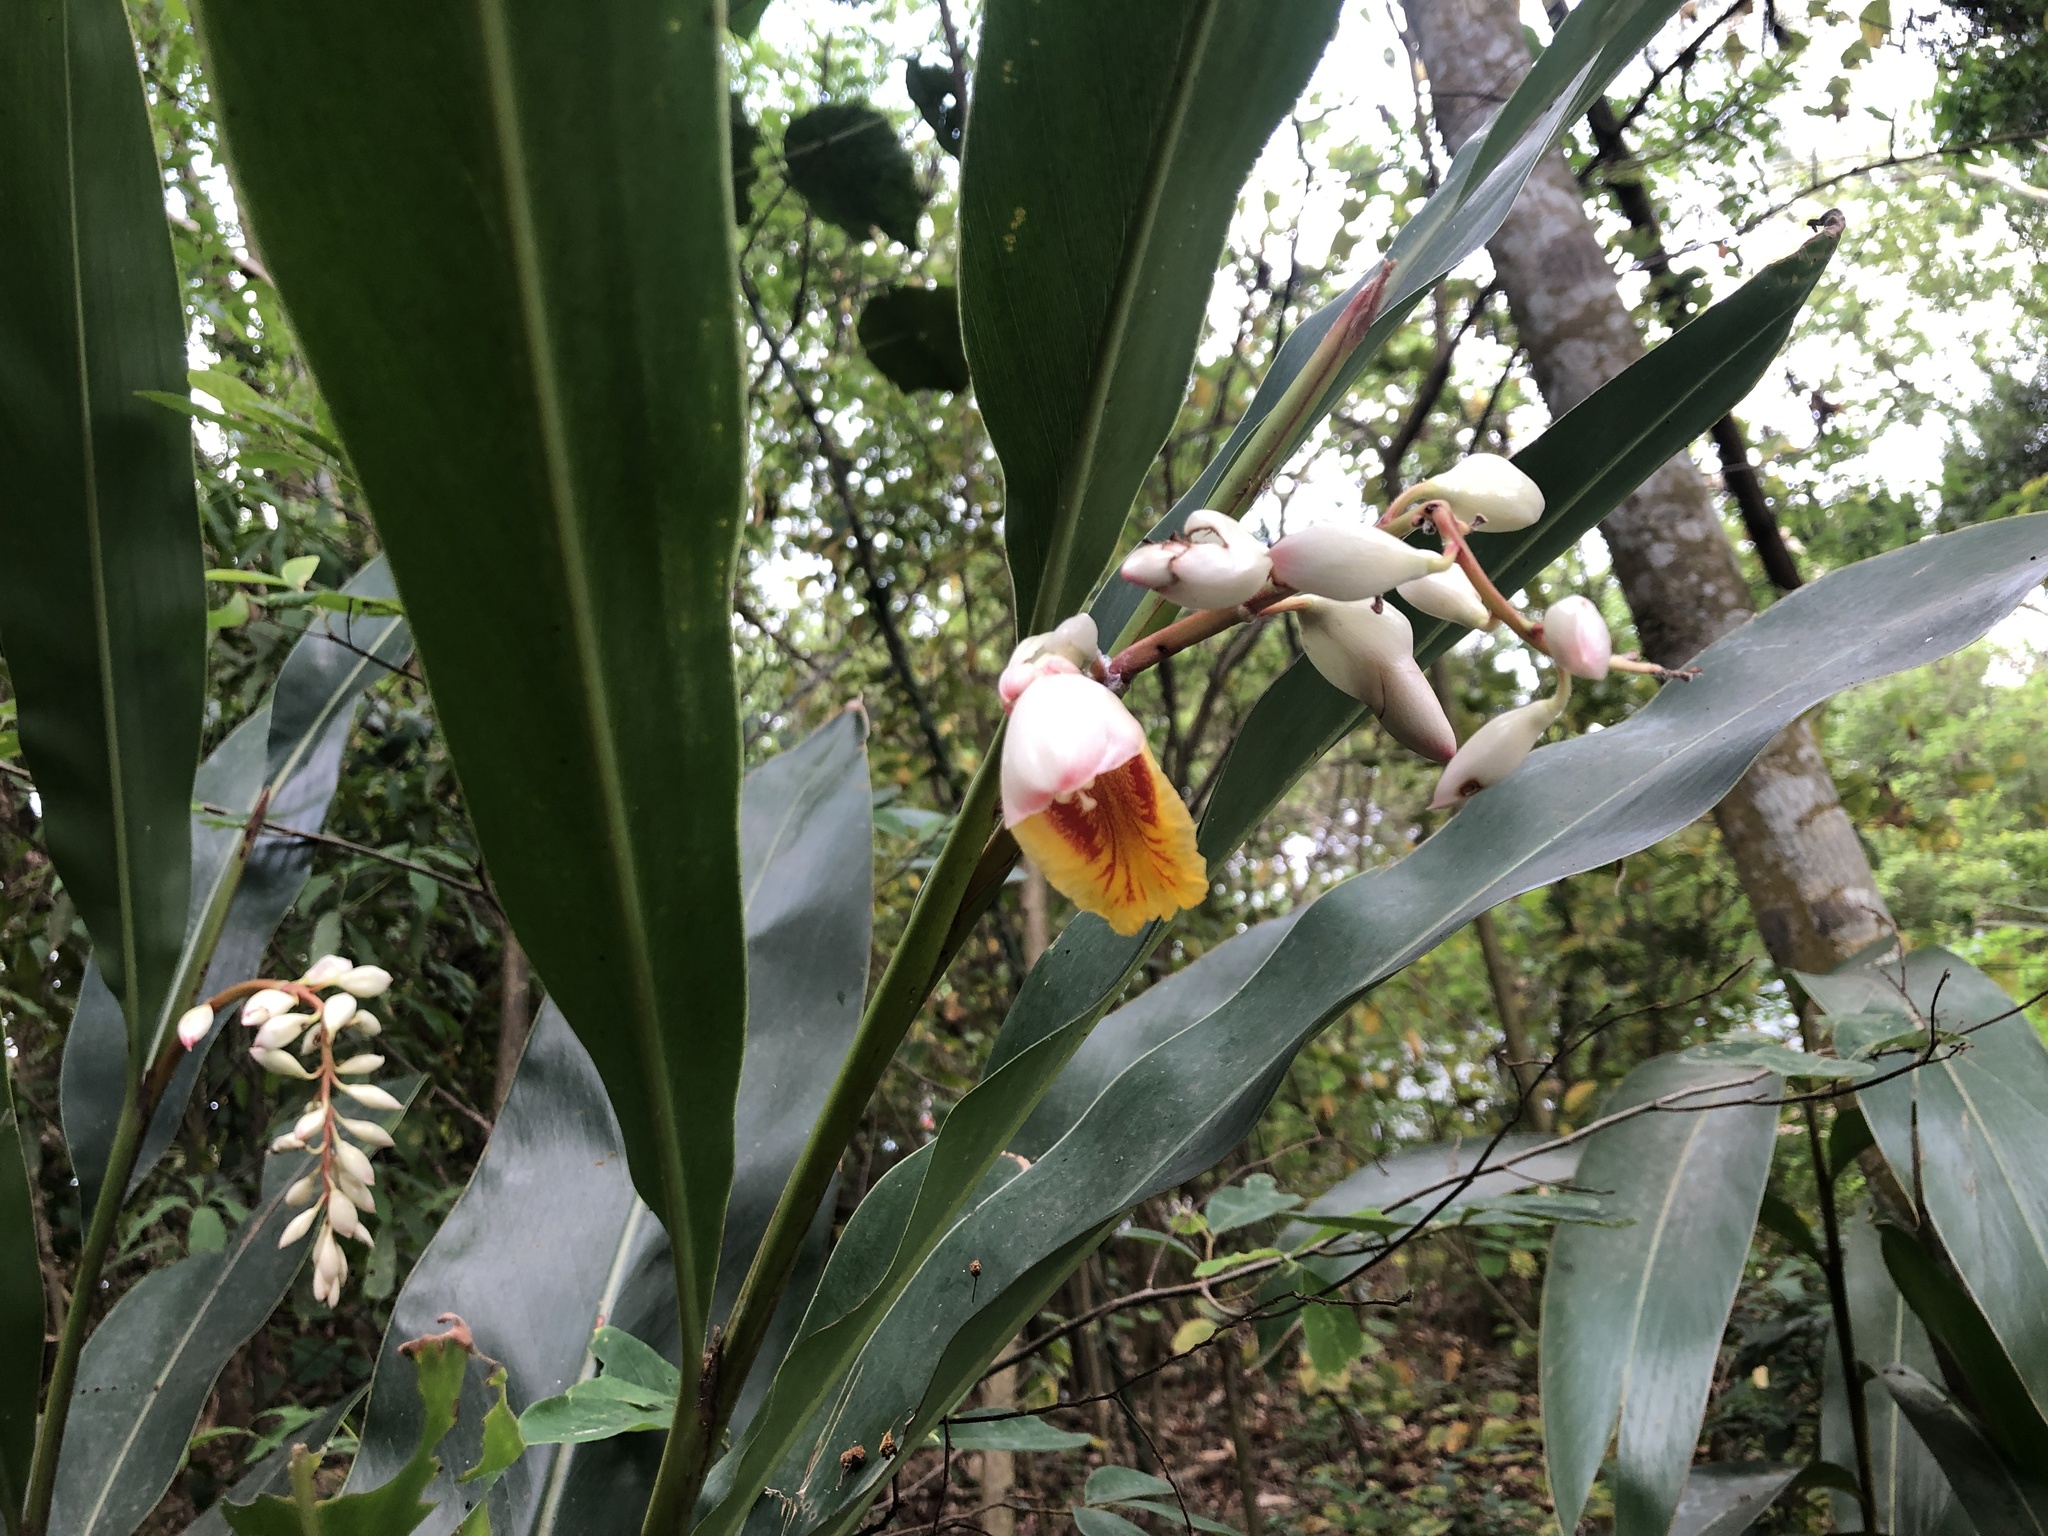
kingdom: Plantae
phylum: Tracheophyta
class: Liliopsida
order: Zingiberales
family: Zingiberaceae
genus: Alpinia
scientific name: Alpinia zerumbet
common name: Shellplant
